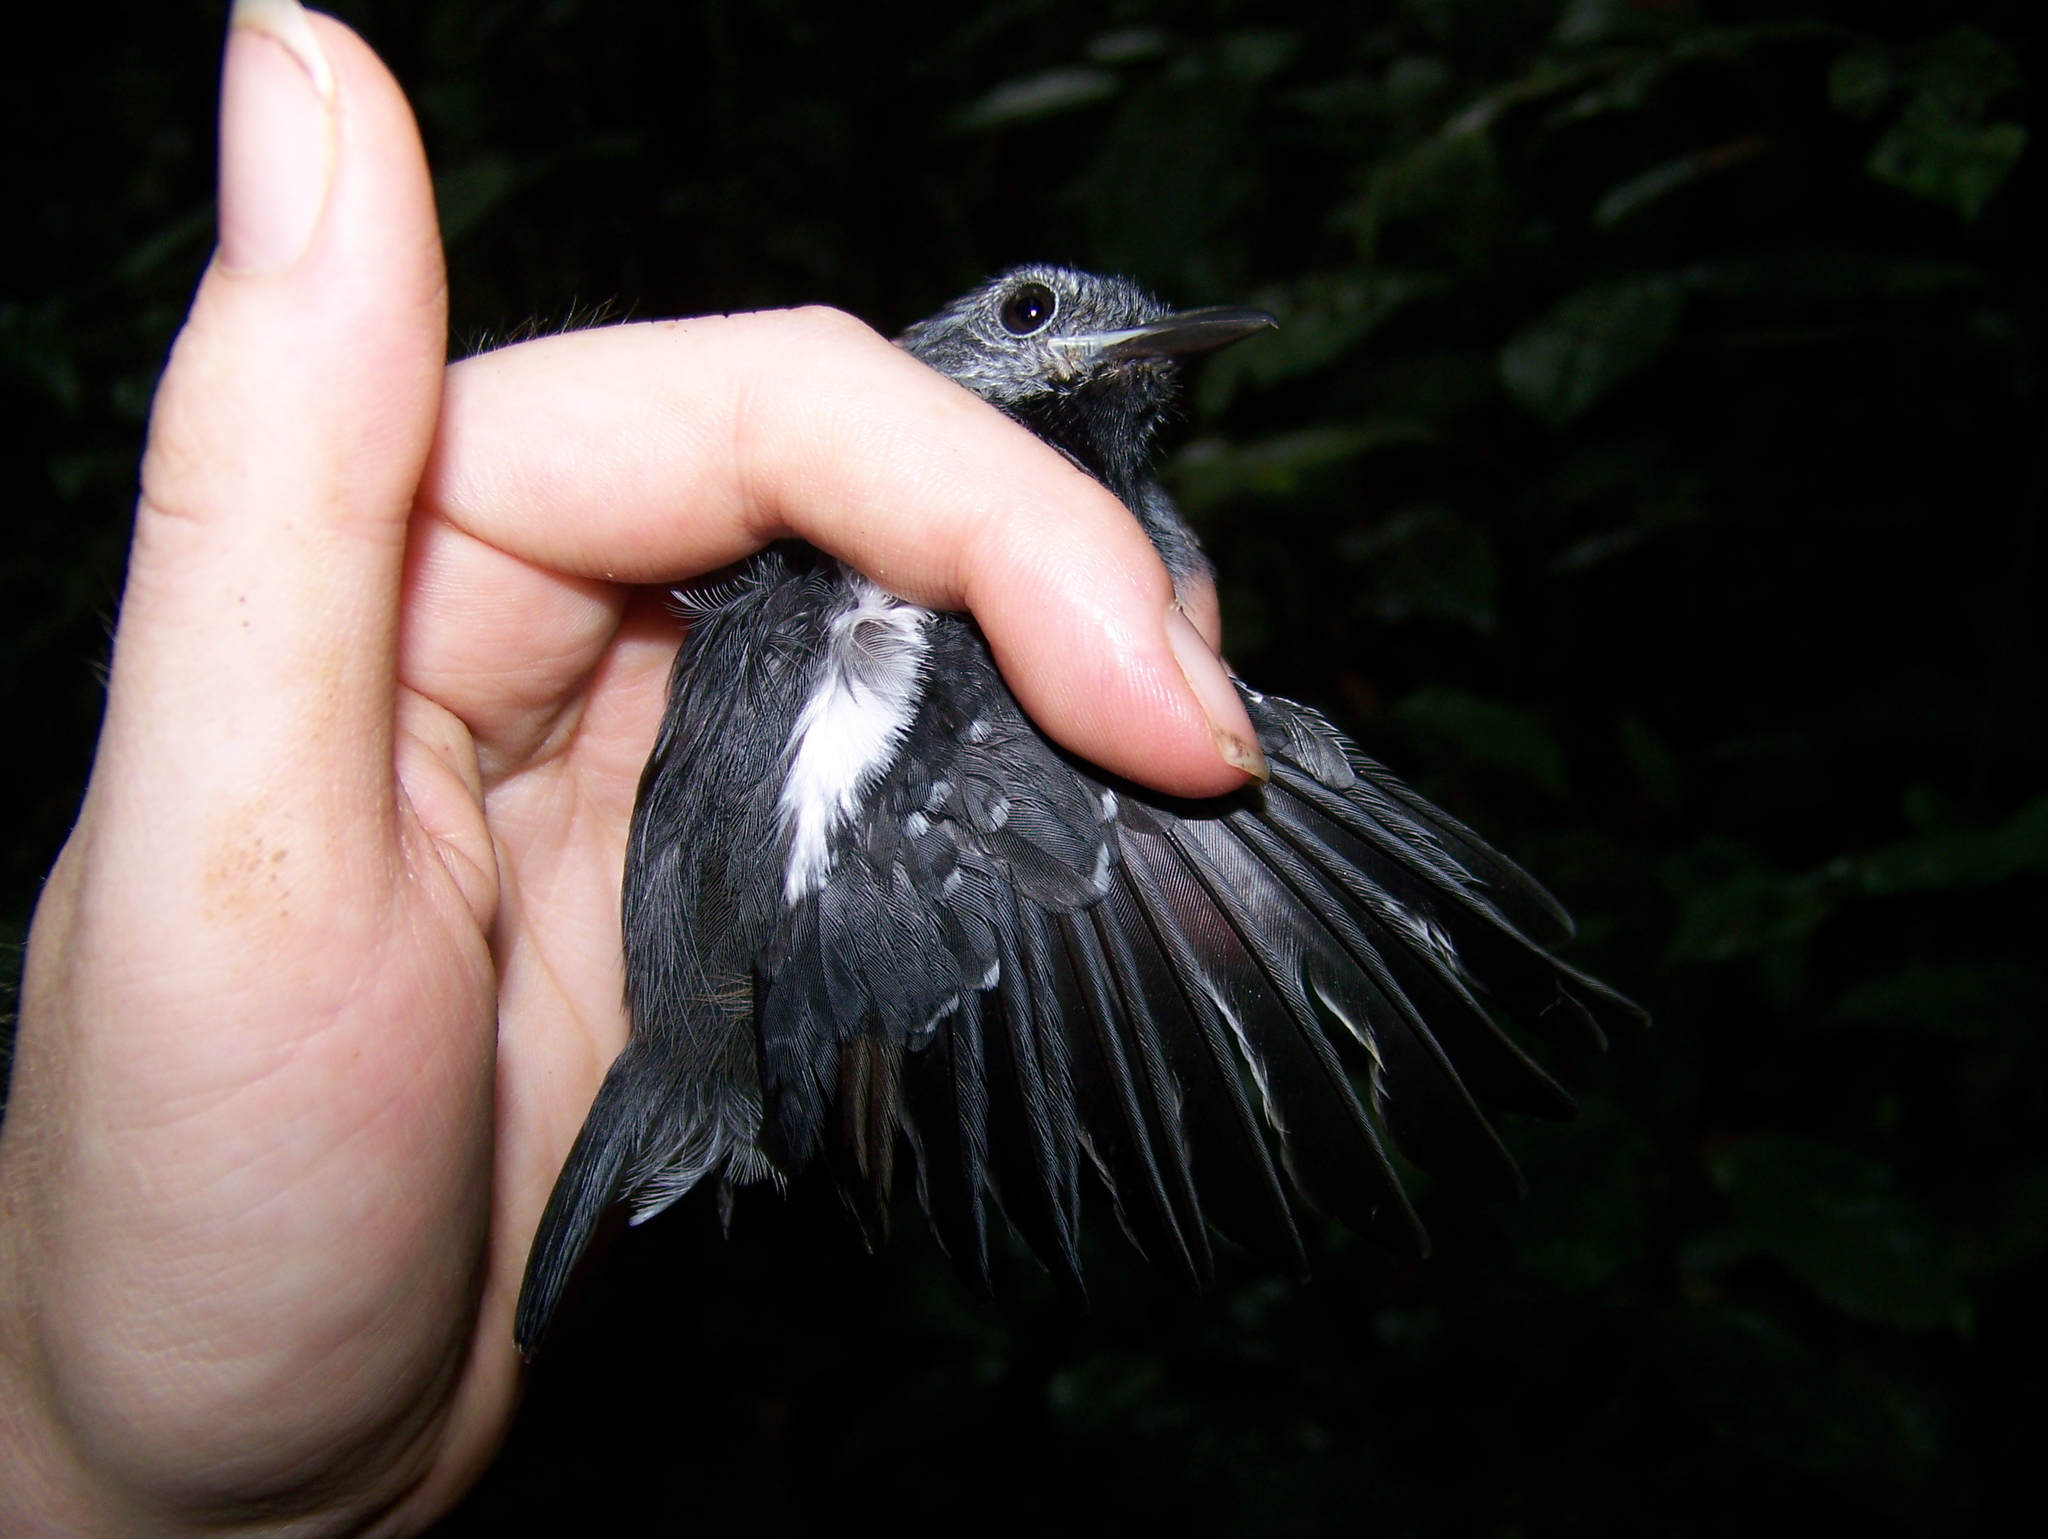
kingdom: Animalia
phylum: Chordata
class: Aves
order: Passeriformes
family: Thamnophilidae
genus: Myrmotherula
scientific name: Myrmotherula longipennis
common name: Long-winged antwren
